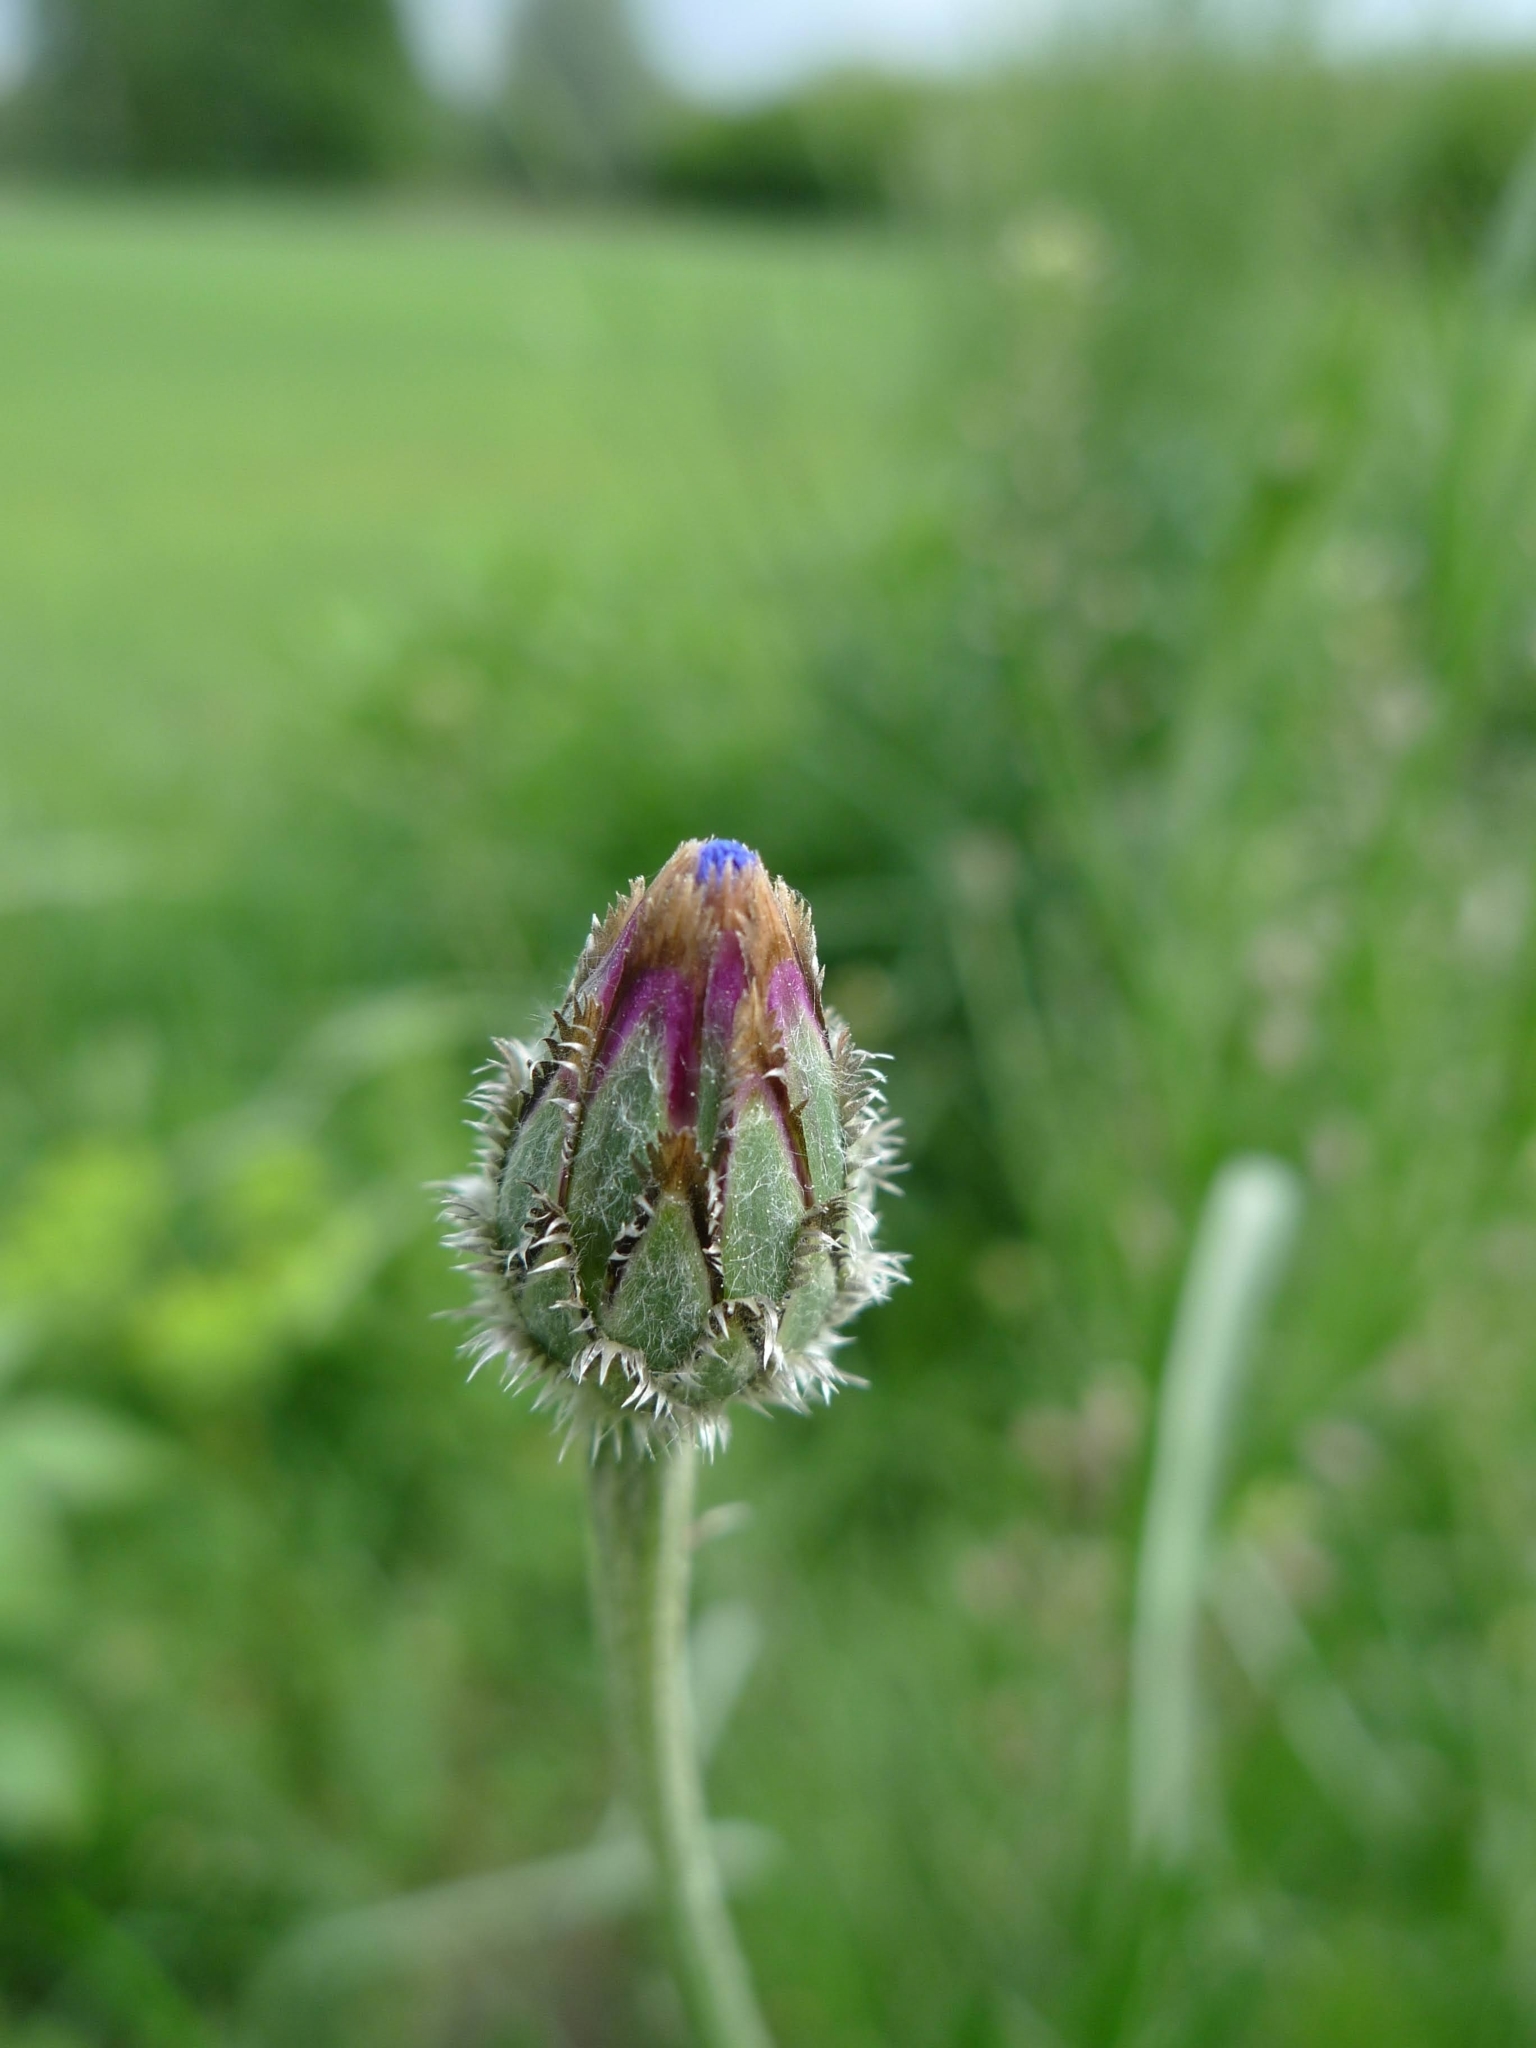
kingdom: Plantae
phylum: Tracheophyta
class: Magnoliopsida
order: Asterales
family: Asteraceae
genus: Centaurea
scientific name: Centaurea cyanus
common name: Cornflower
